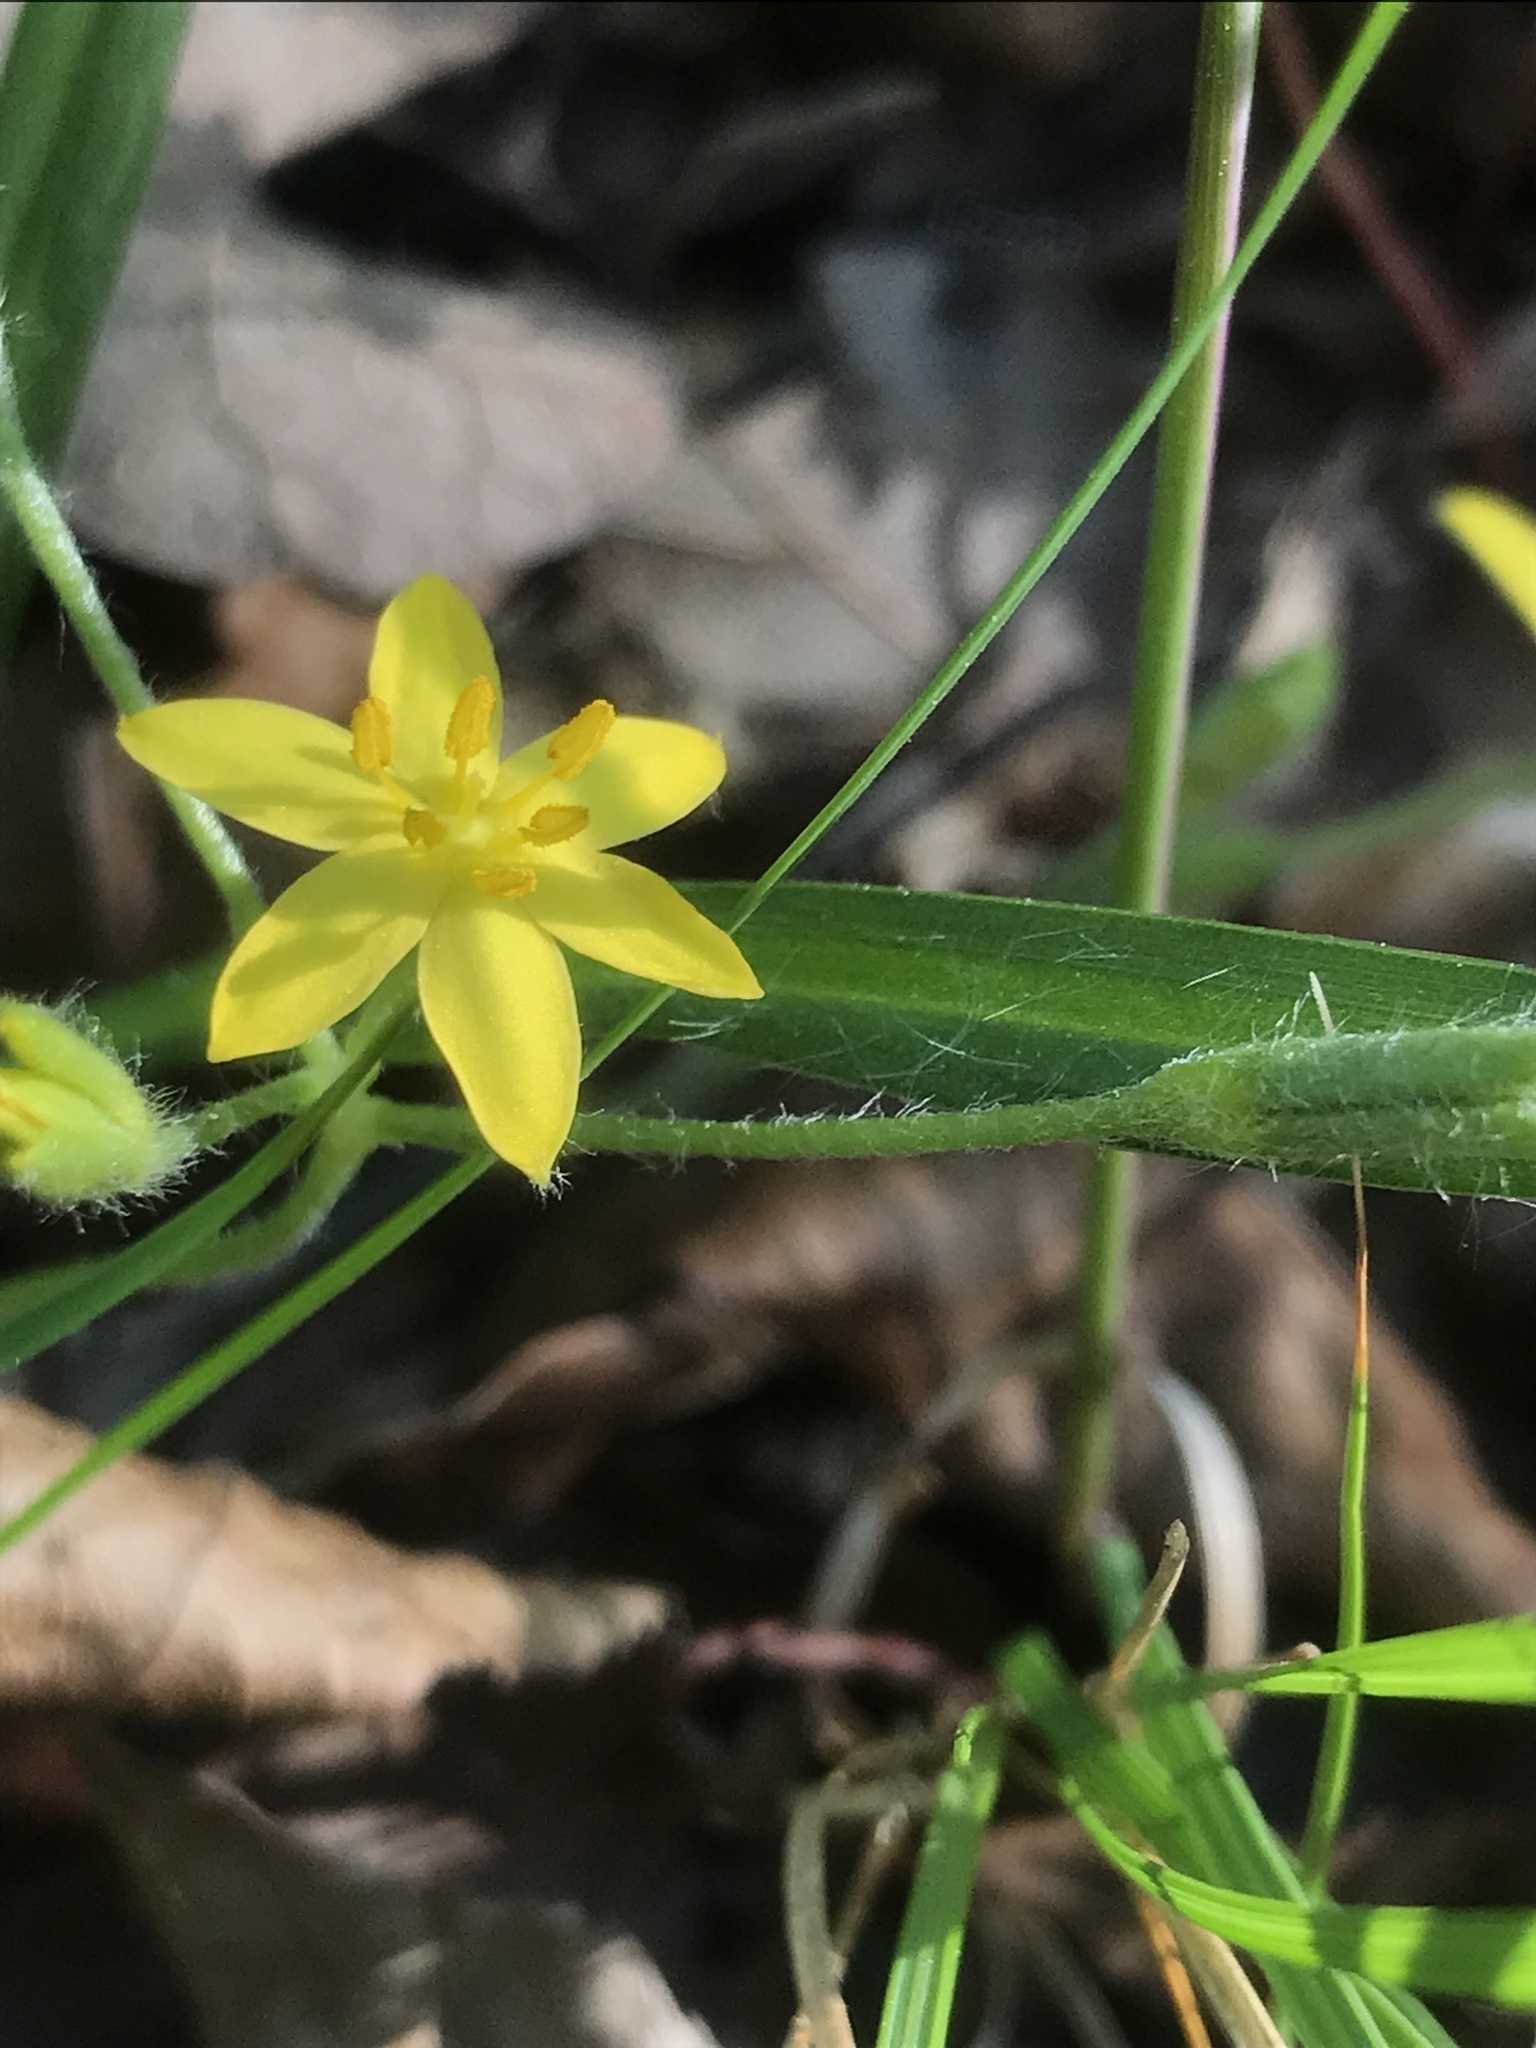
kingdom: Plantae
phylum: Tracheophyta
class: Liliopsida
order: Asparagales
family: Hypoxidaceae
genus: Hypoxis
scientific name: Hypoxis hirsuta
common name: Common goldstar
